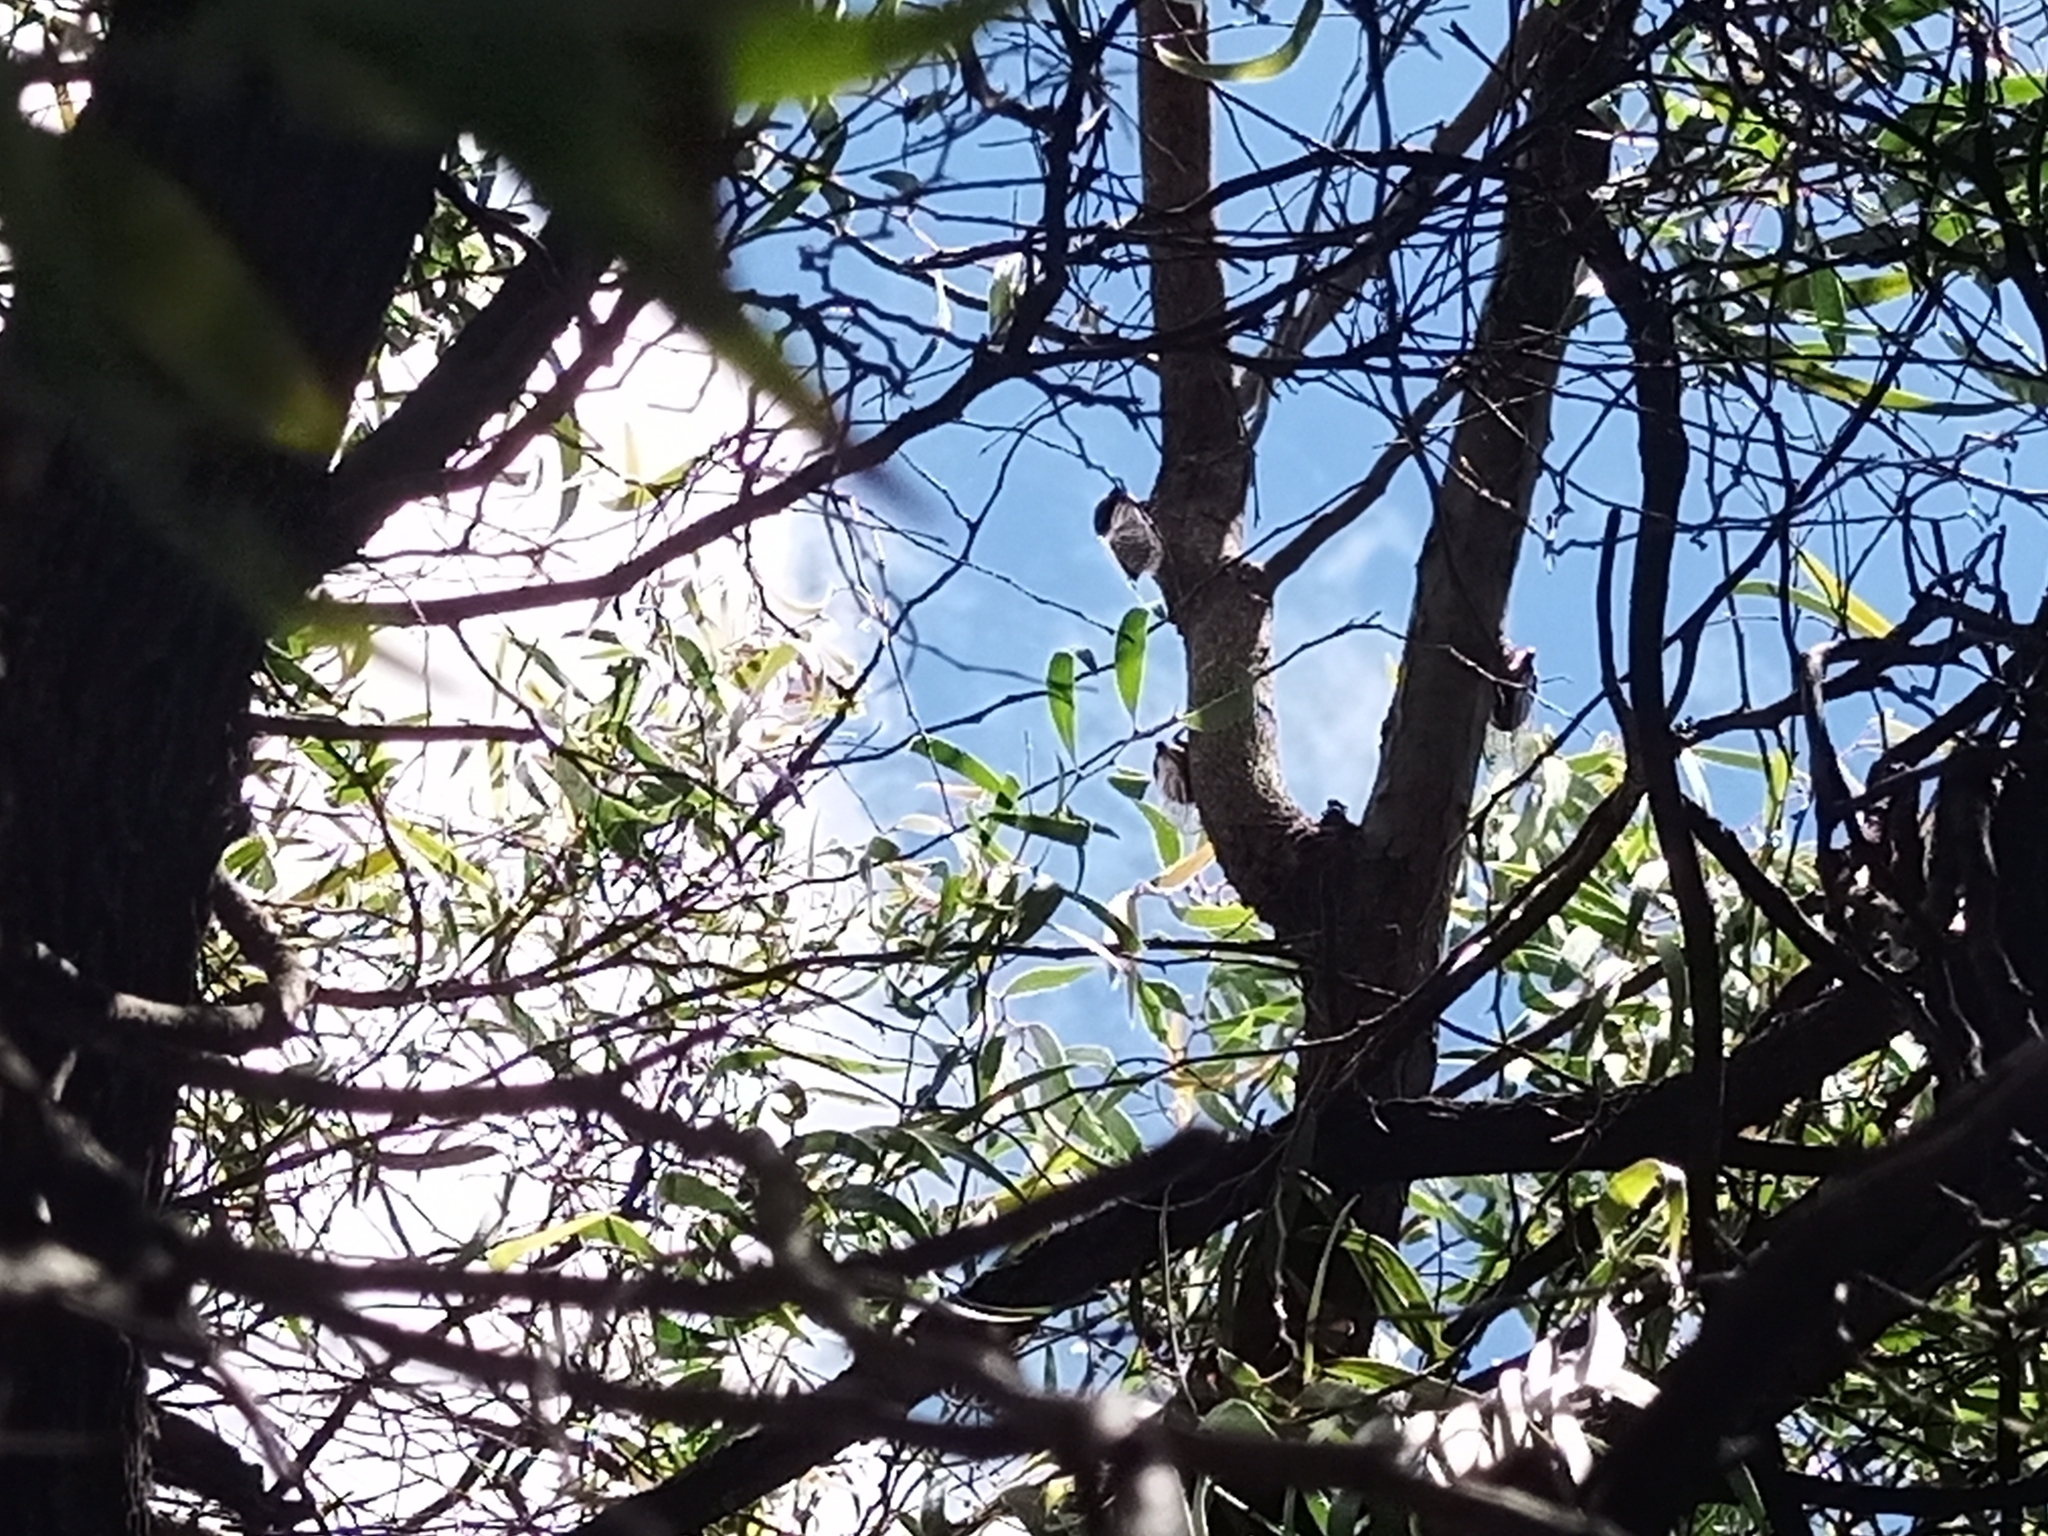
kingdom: Animalia
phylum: Arthropoda
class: Insecta
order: Hemiptera
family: Cicadidae
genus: Psaltoda
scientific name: Psaltoda plaga
